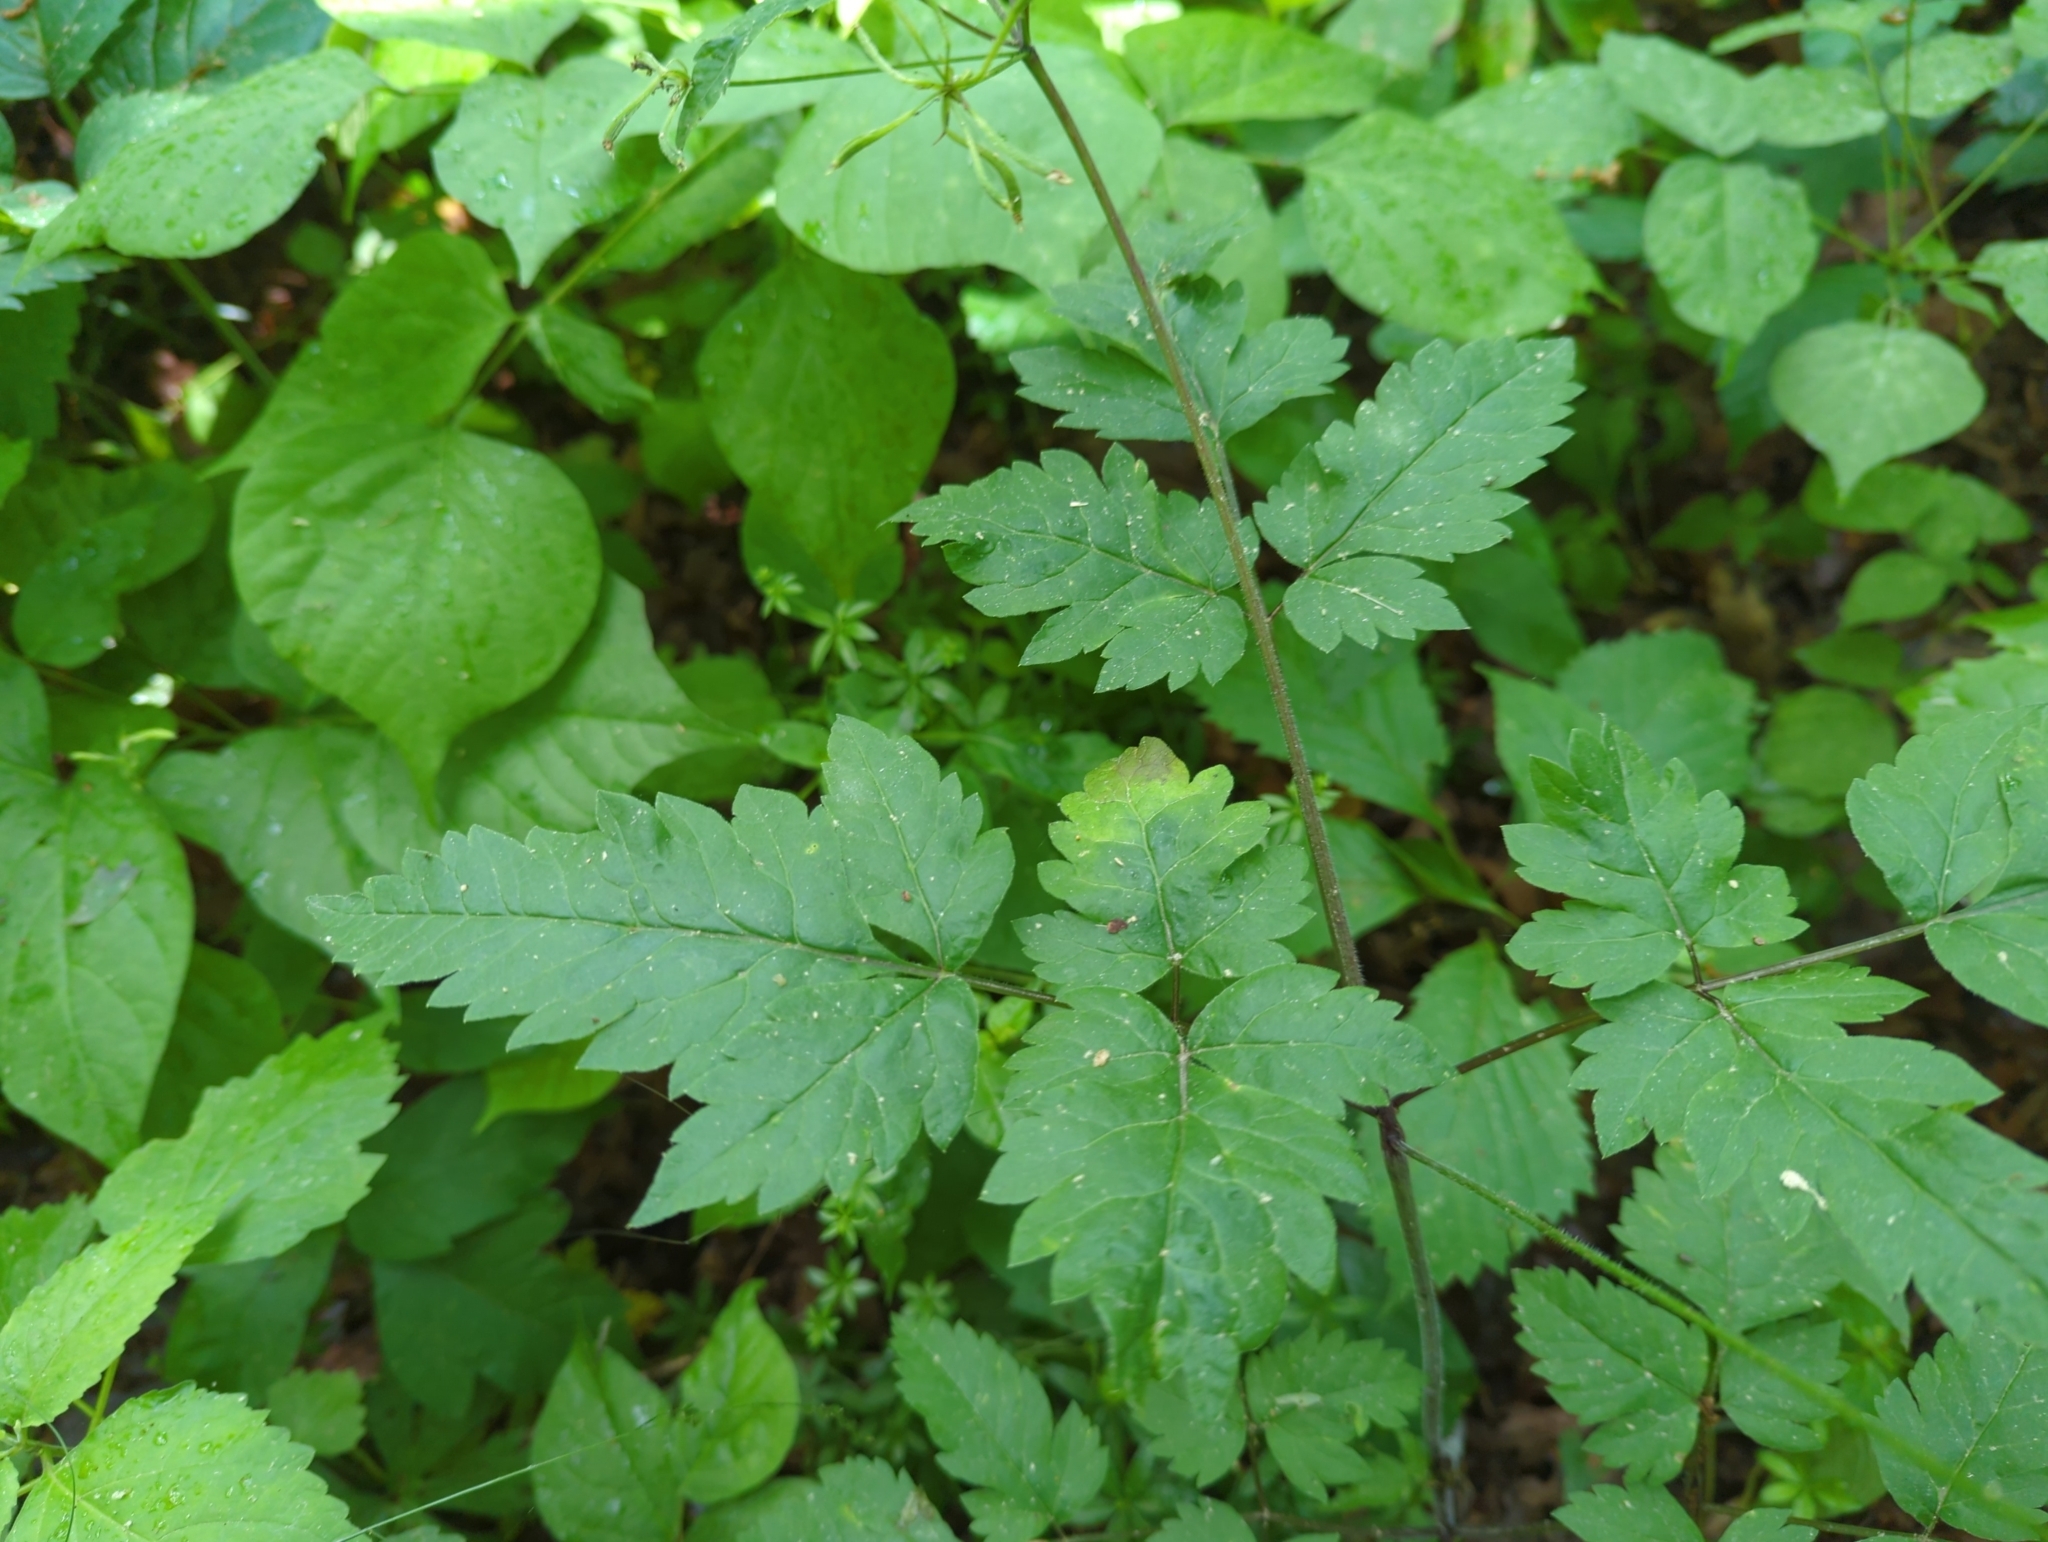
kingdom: Plantae
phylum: Tracheophyta
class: Magnoliopsida
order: Apiales
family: Apiaceae
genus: Osmorhiza
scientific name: Osmorhiza claytonii
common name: Hairy sweet cicely
